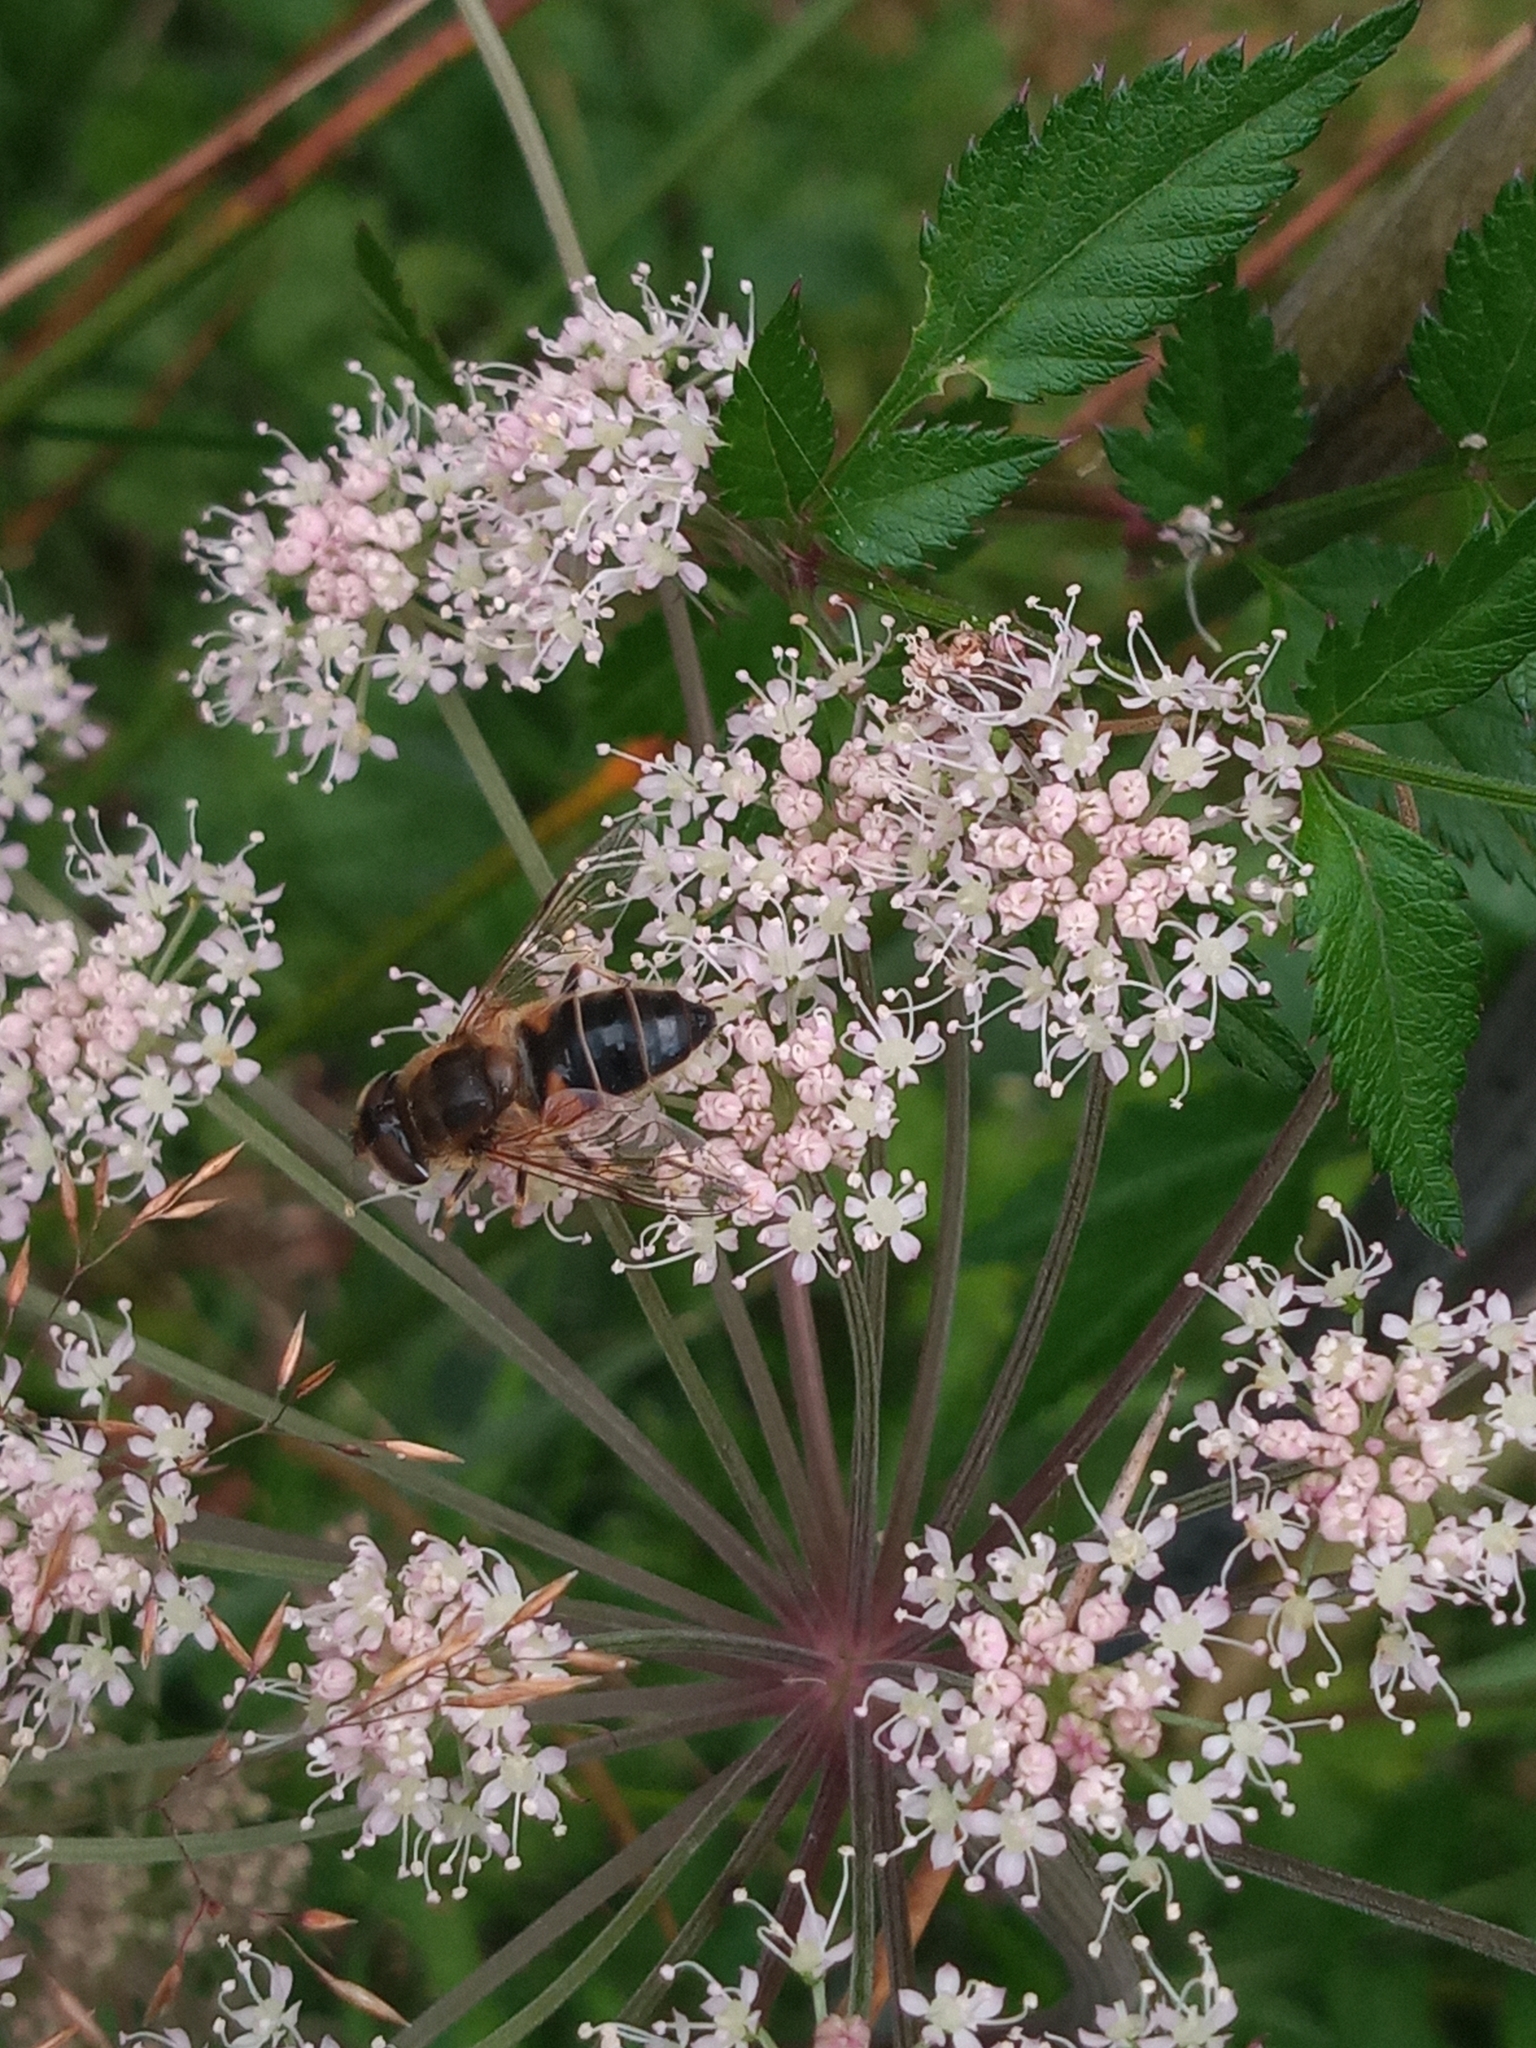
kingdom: Animalia
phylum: Arthropoda
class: Insecta
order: Diptera
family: Syrphidae
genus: Eristalis
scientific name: Eristalis pertinax
